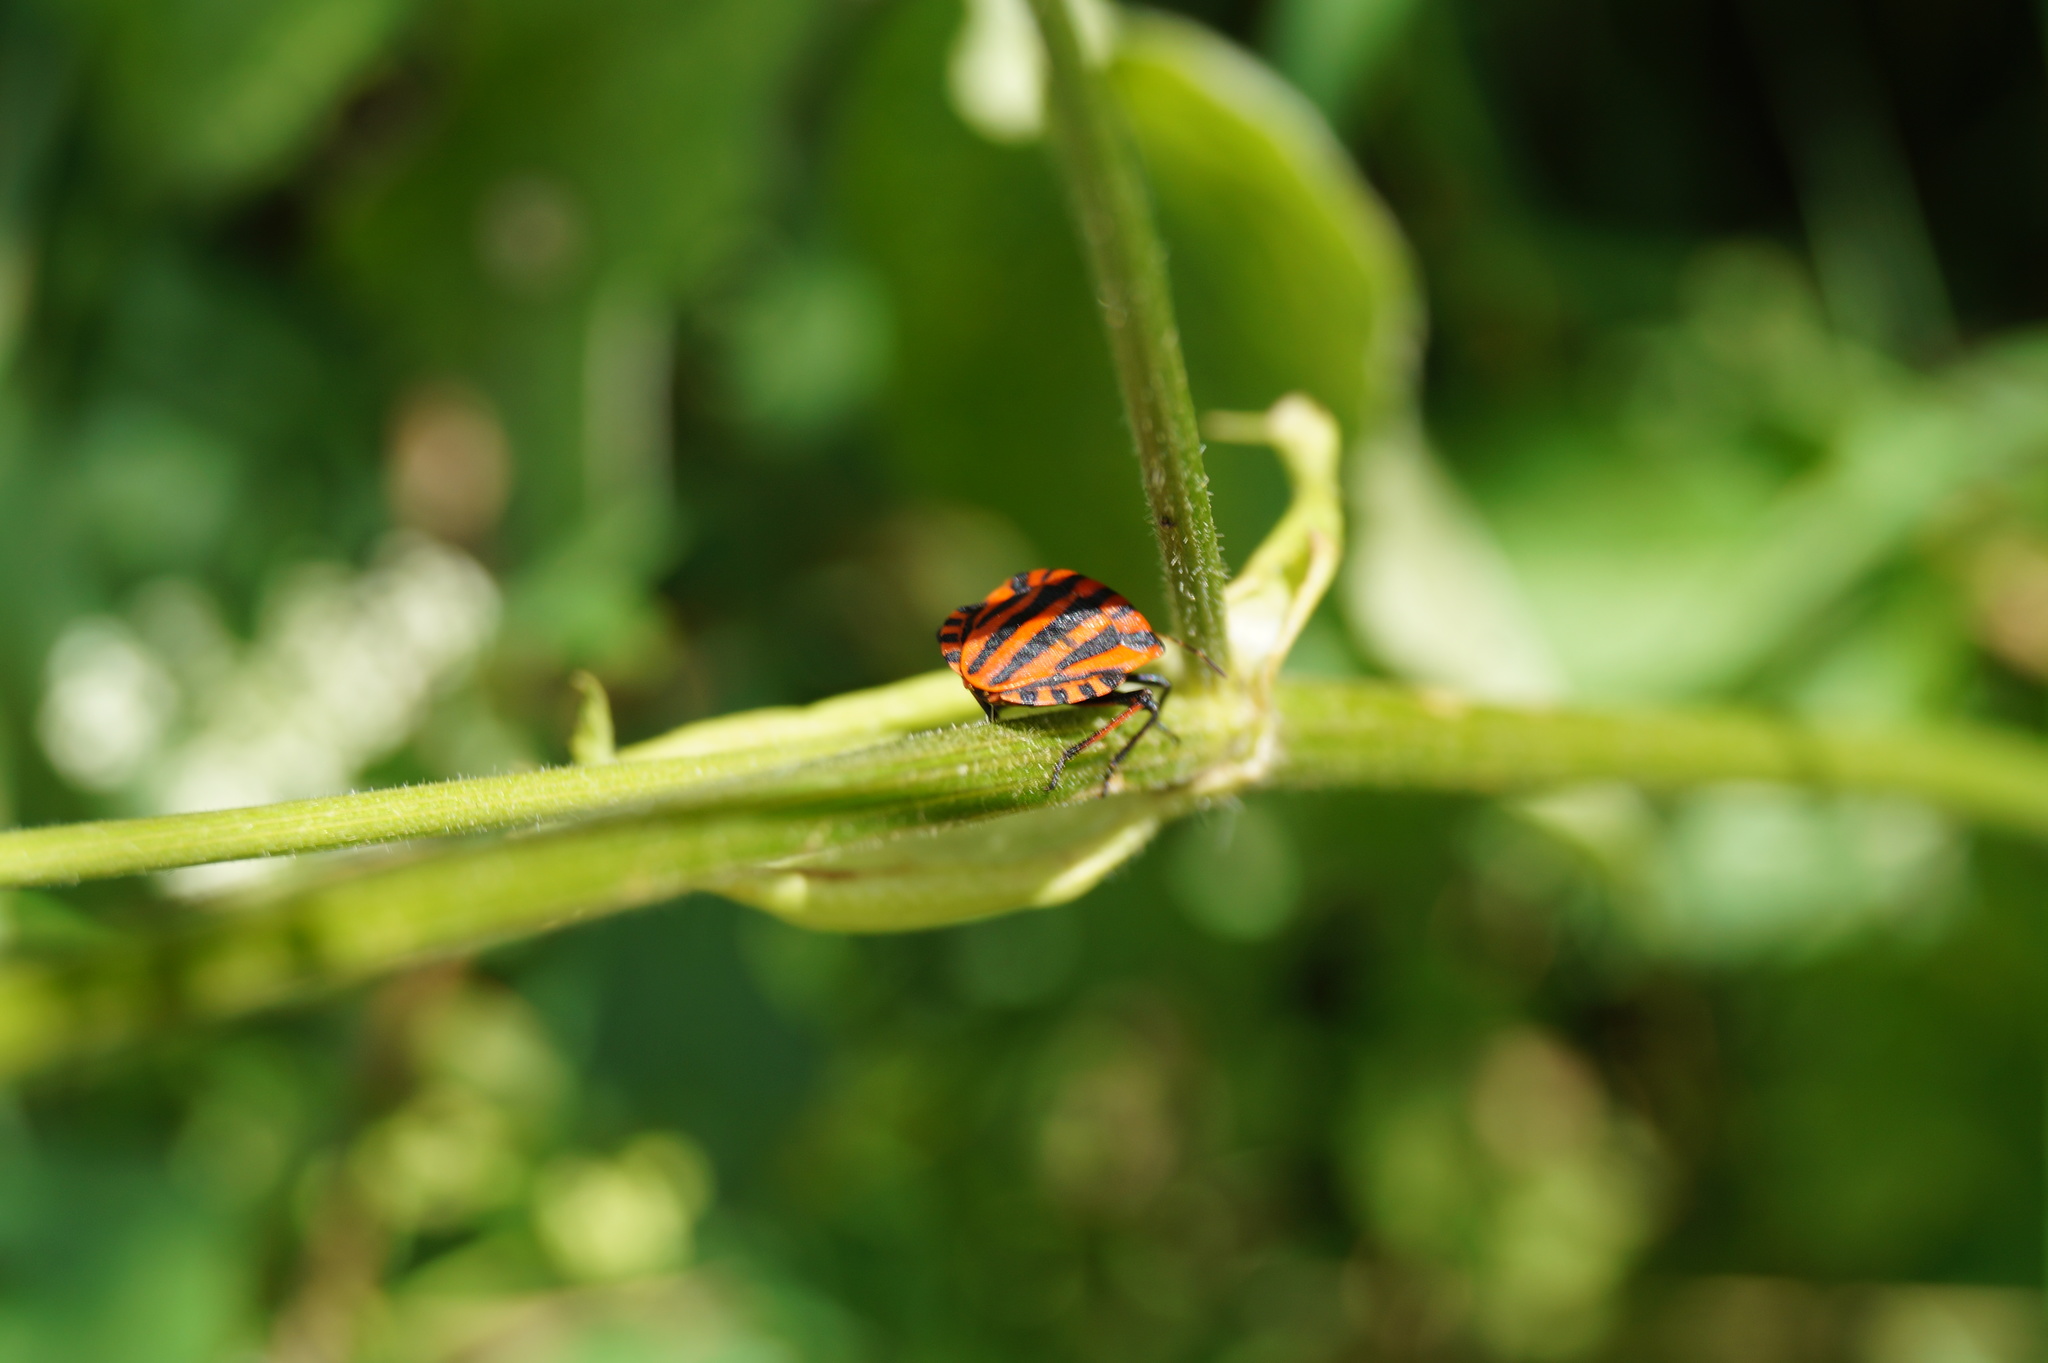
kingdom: Animalia
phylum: Arthropoda
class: Insecta
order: Hemiptera
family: Pentatomidae
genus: Graphosoma
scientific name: Graphosoma italicum
